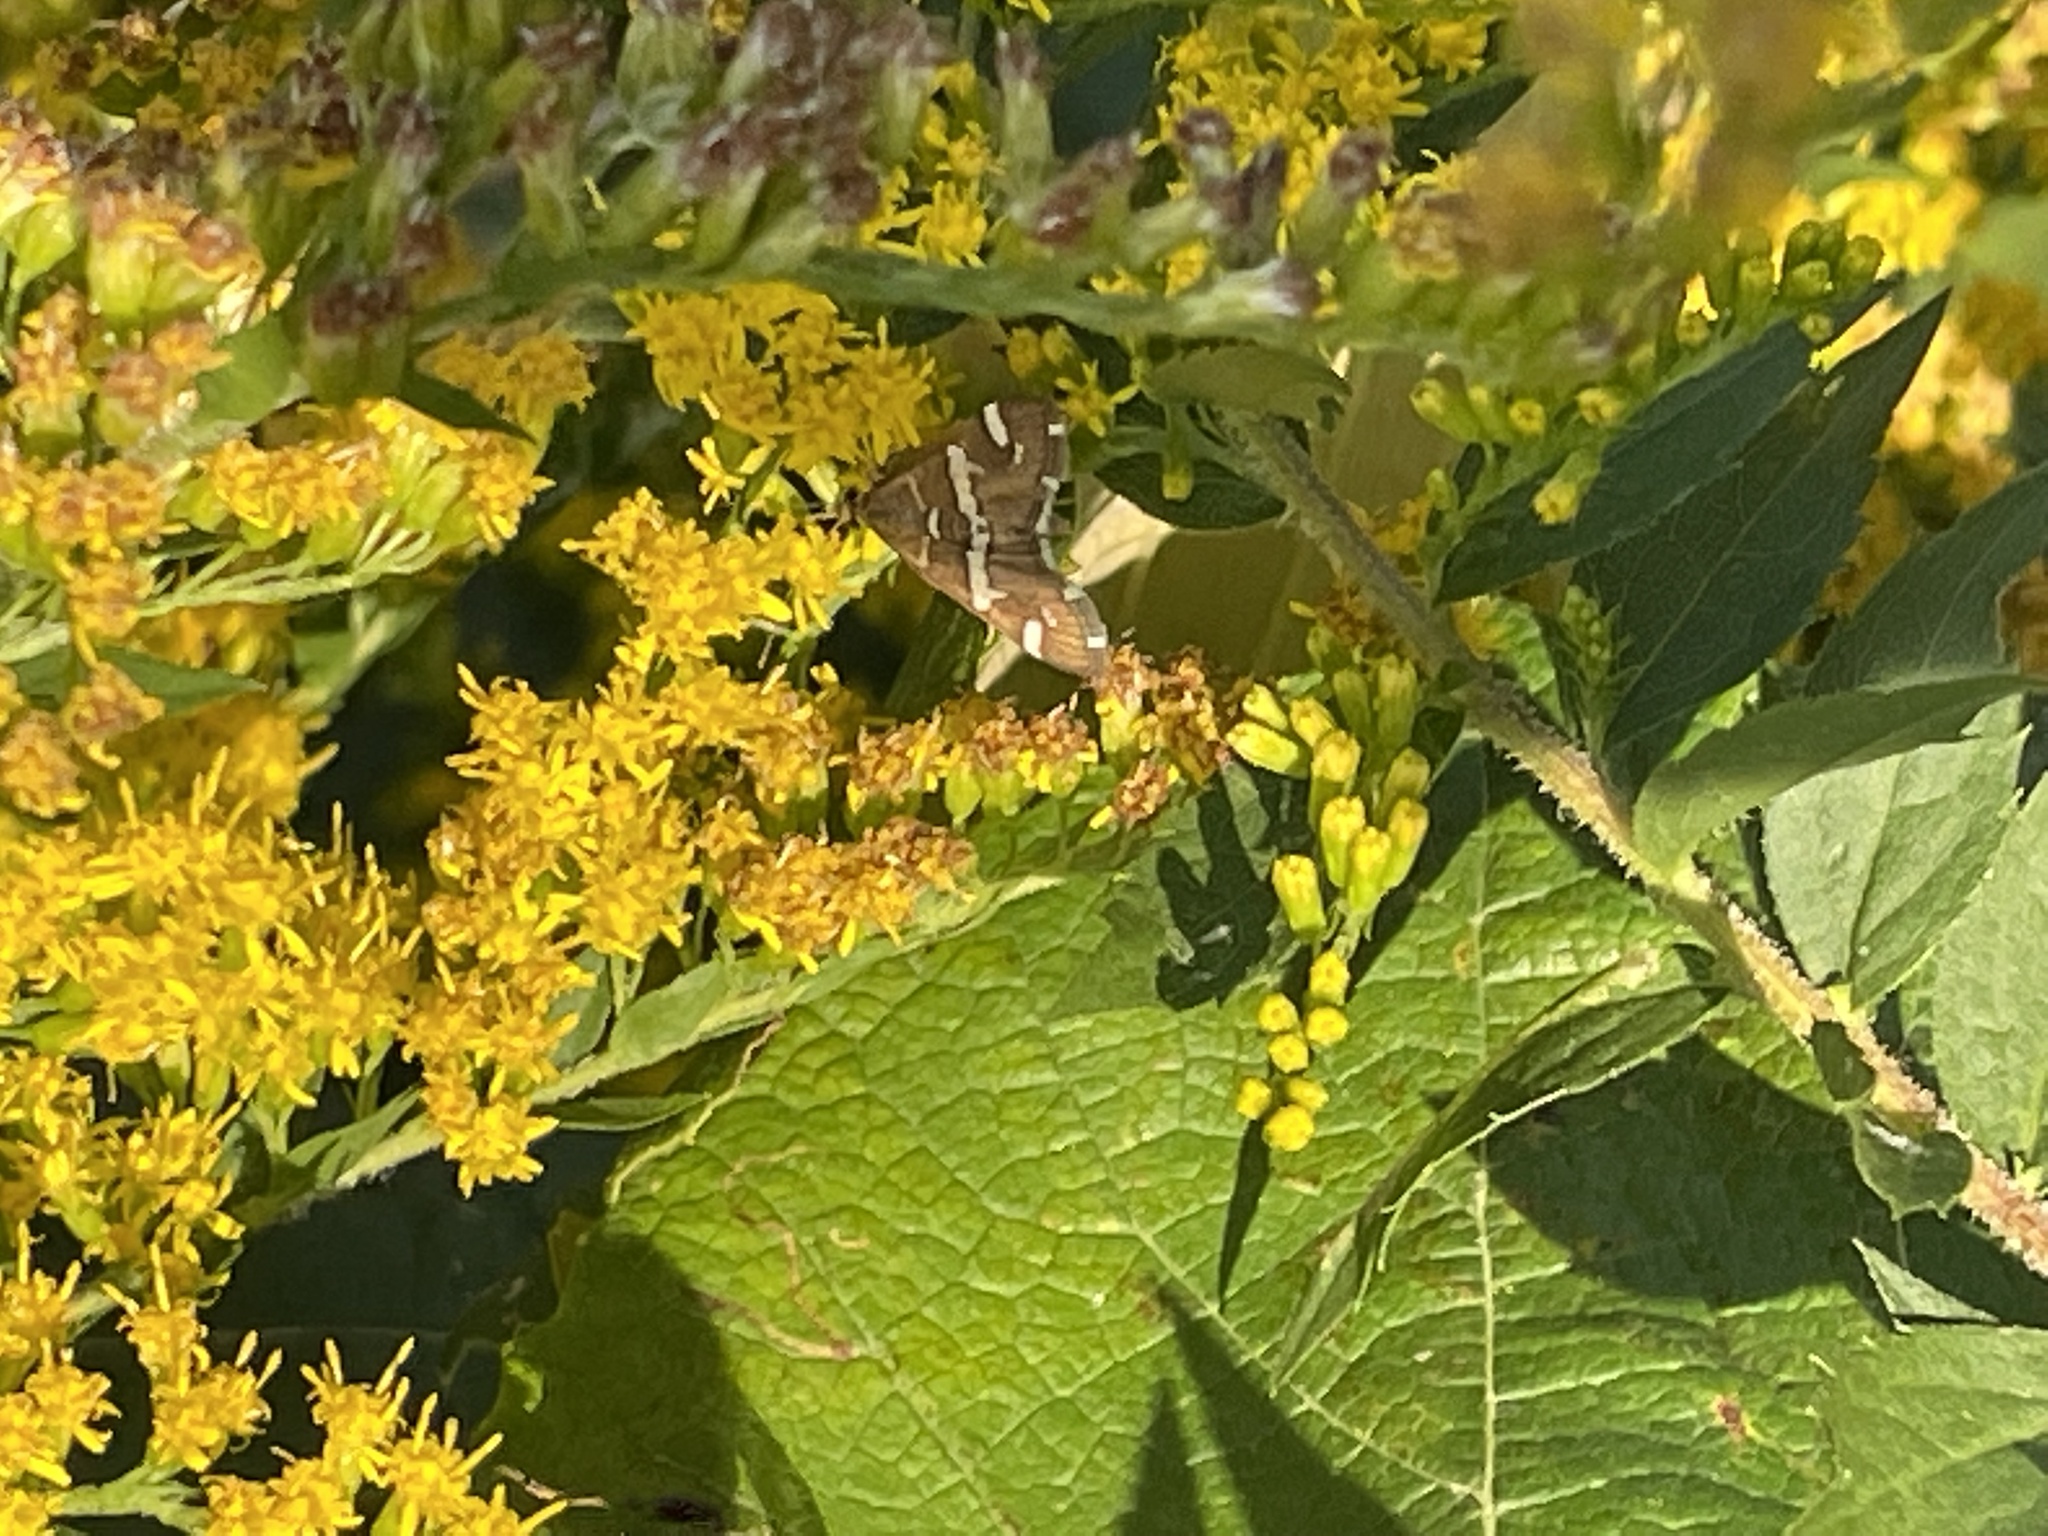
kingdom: Animalia
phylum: Arthropoda
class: Insecta
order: Lepidoptera
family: Crambidae
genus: Spoladea
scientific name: Spoladea recurvalis
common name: Beet webworm moth
